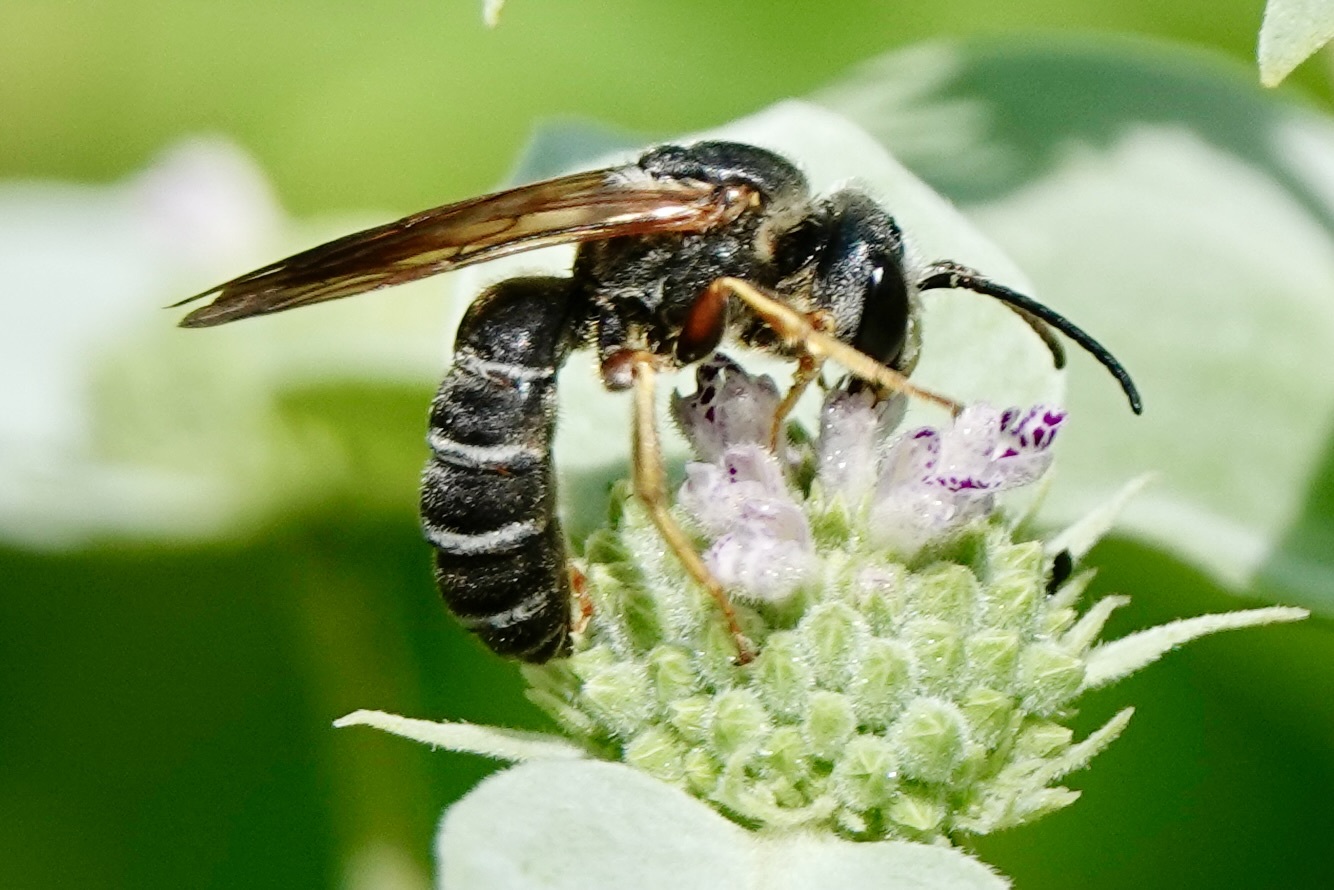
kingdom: Animalia
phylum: Arthropoda
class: Insecta
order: Hymenoptera
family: Halictidae
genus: Halictus
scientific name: Halictus parallelus
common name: Parallel-striped sweat bee
